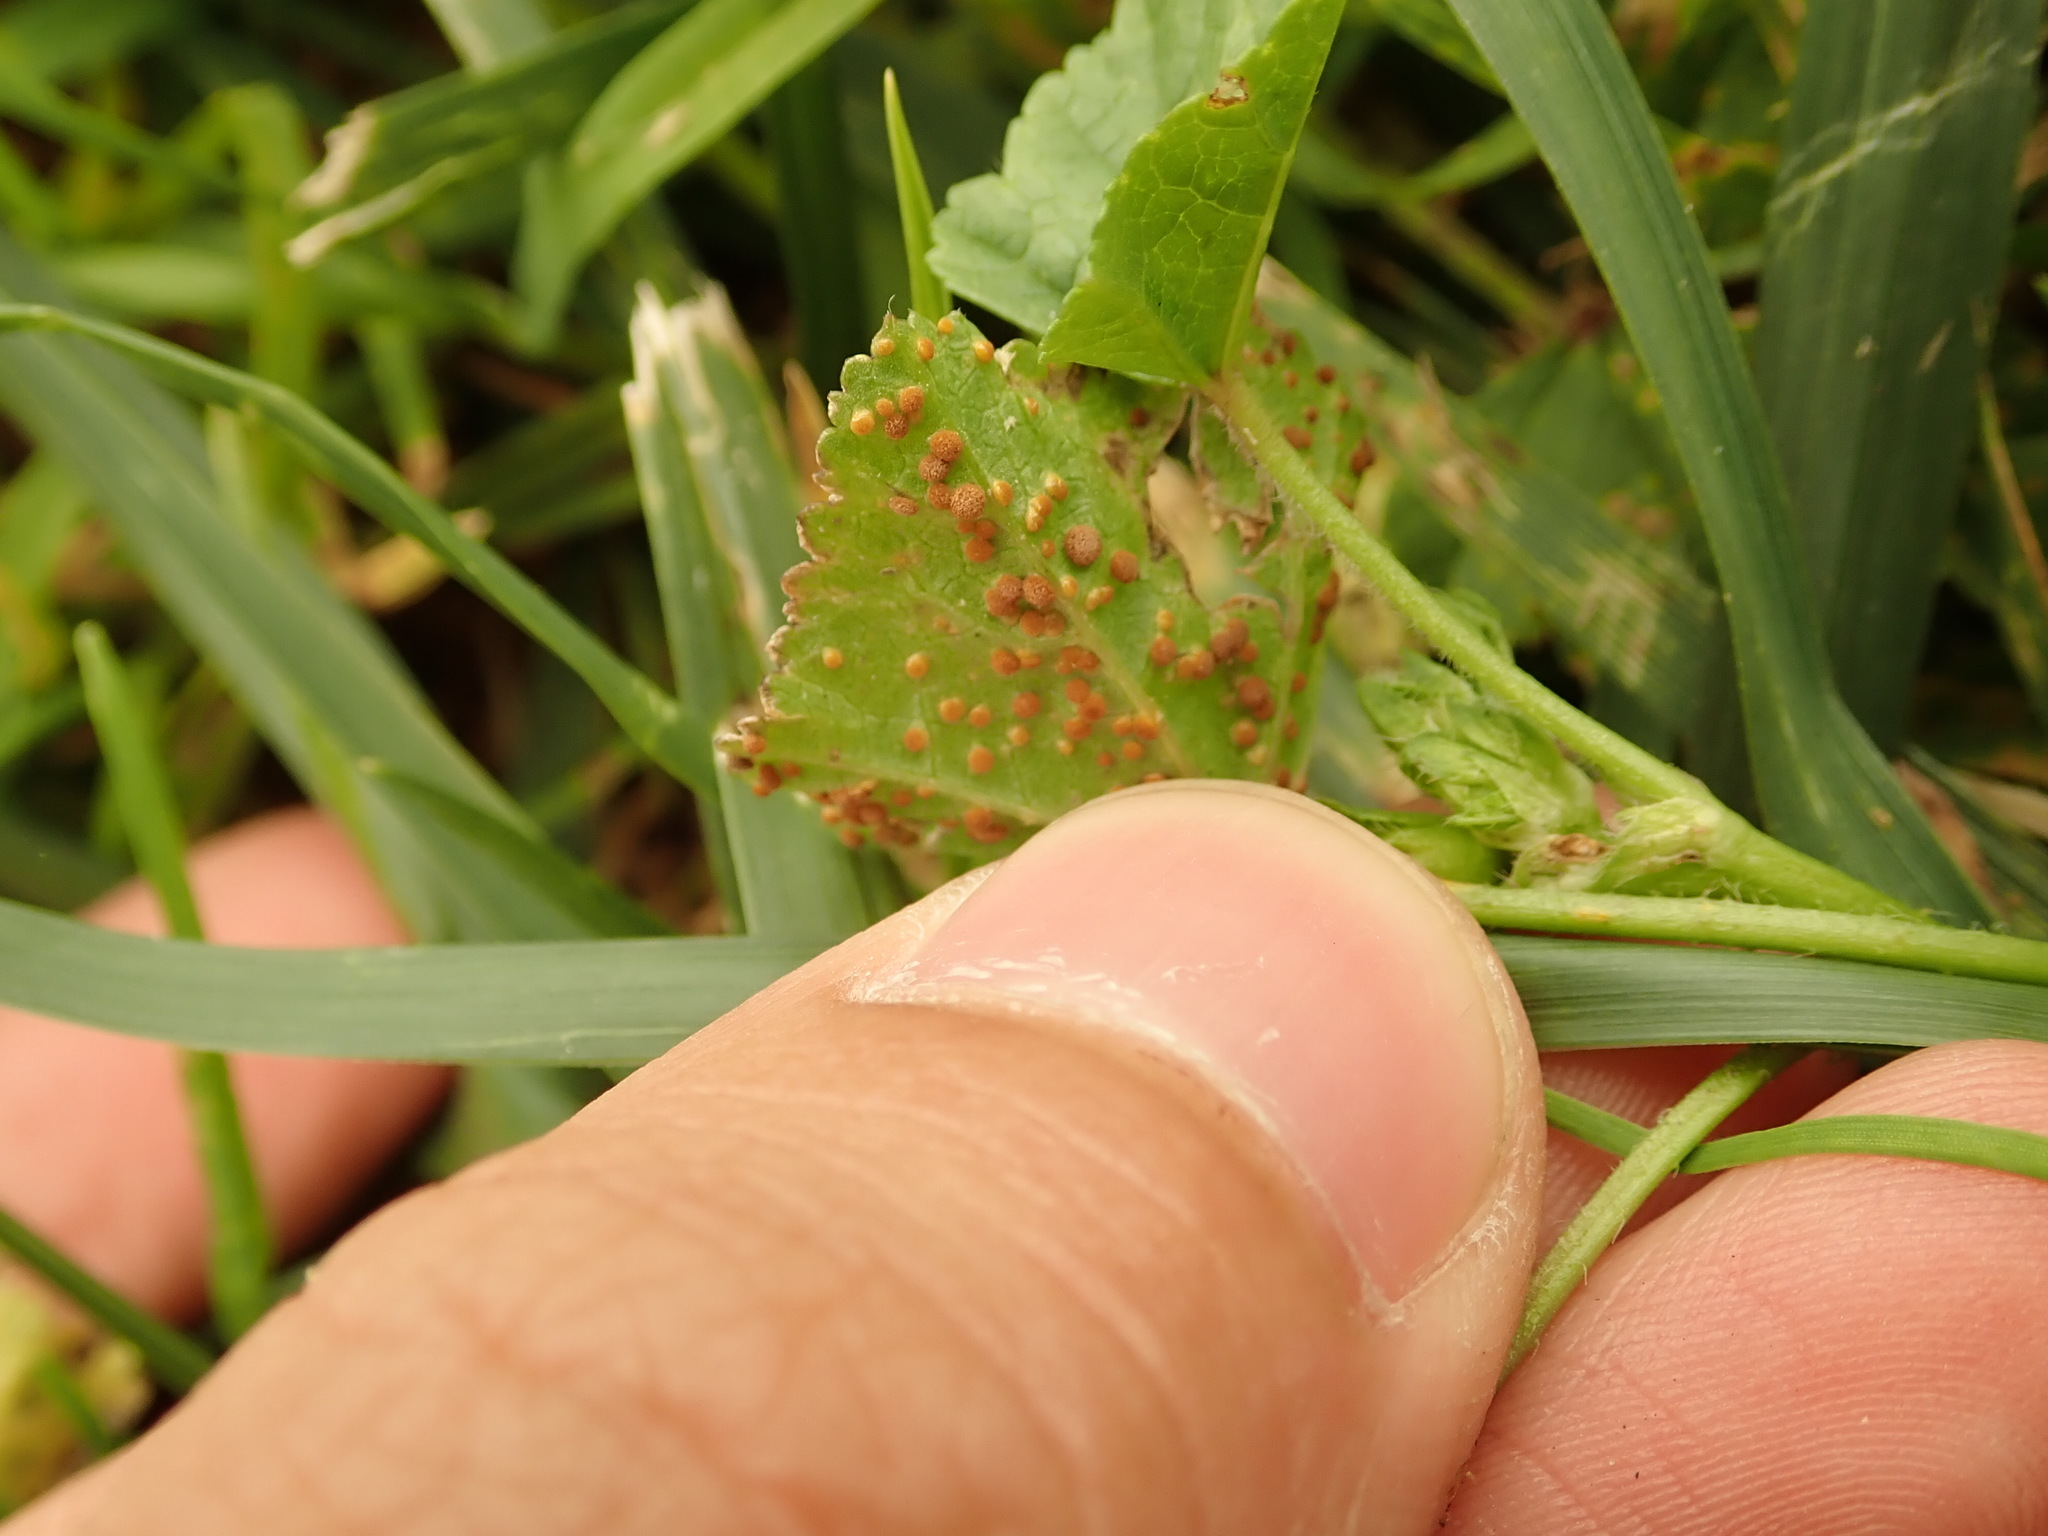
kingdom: Fungi
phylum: Basidiomycota
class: Pucciniomycetes
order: Pucciniales
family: Pucciniaceae
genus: Puccinia
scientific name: Puccinia malvacearum
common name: Hollyhock rust
